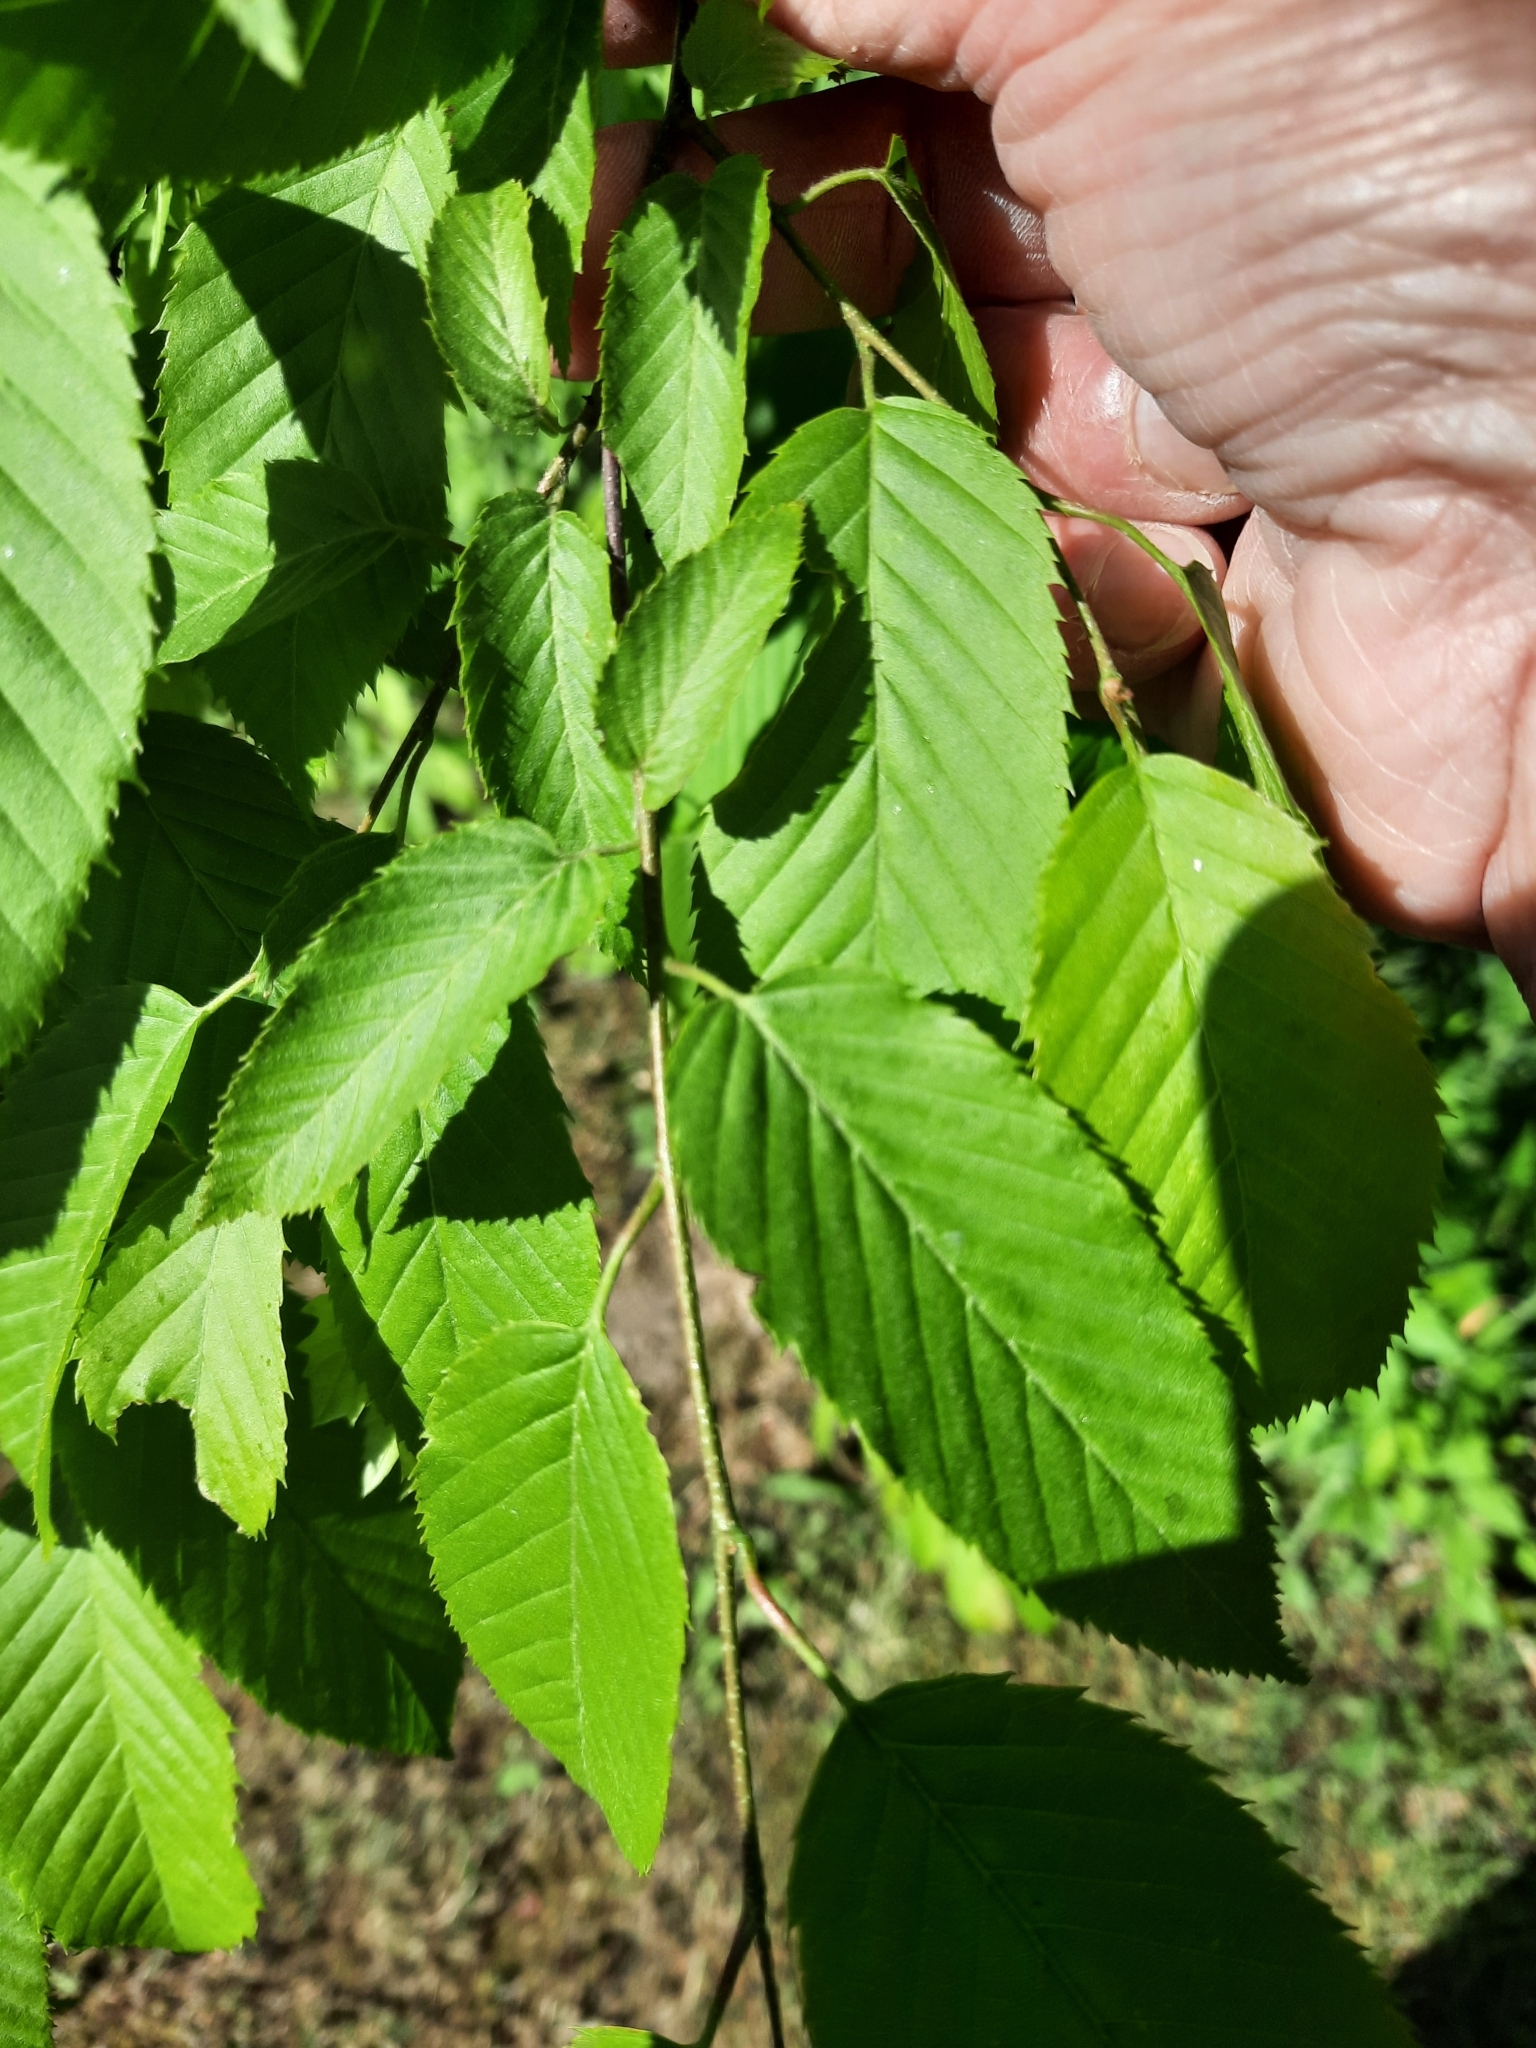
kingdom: Plantae
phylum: Tracheophyta
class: Magnoliopsida
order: Fagales
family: Betulaceae
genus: Carpinus
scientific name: Carpinus caroliniana
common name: American hornbeam
